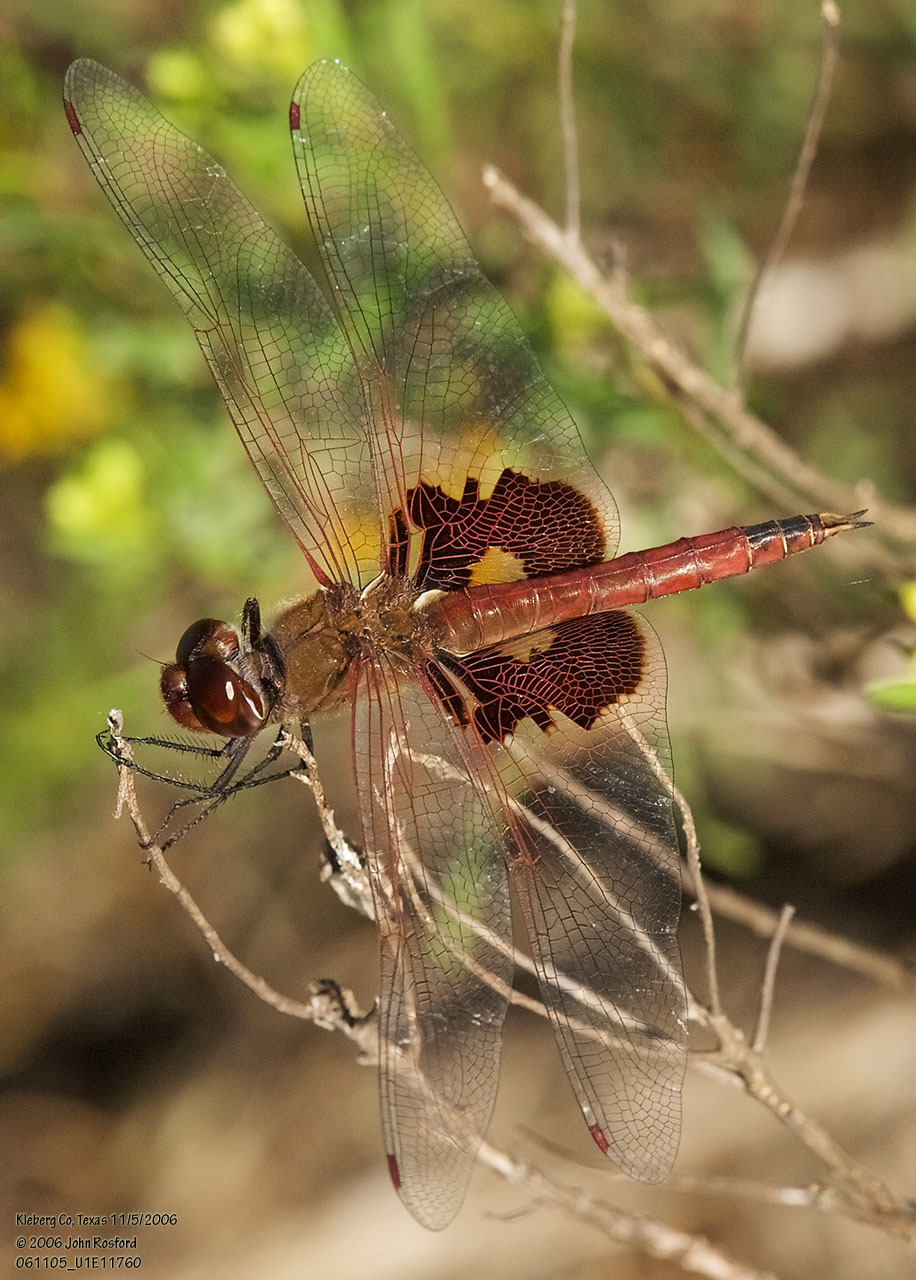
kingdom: Animalia
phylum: Arthropoda
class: Insecta
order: Odonata
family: Libellulidae
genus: Tramea
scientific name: Tramea onusta
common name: Red saddlebags
